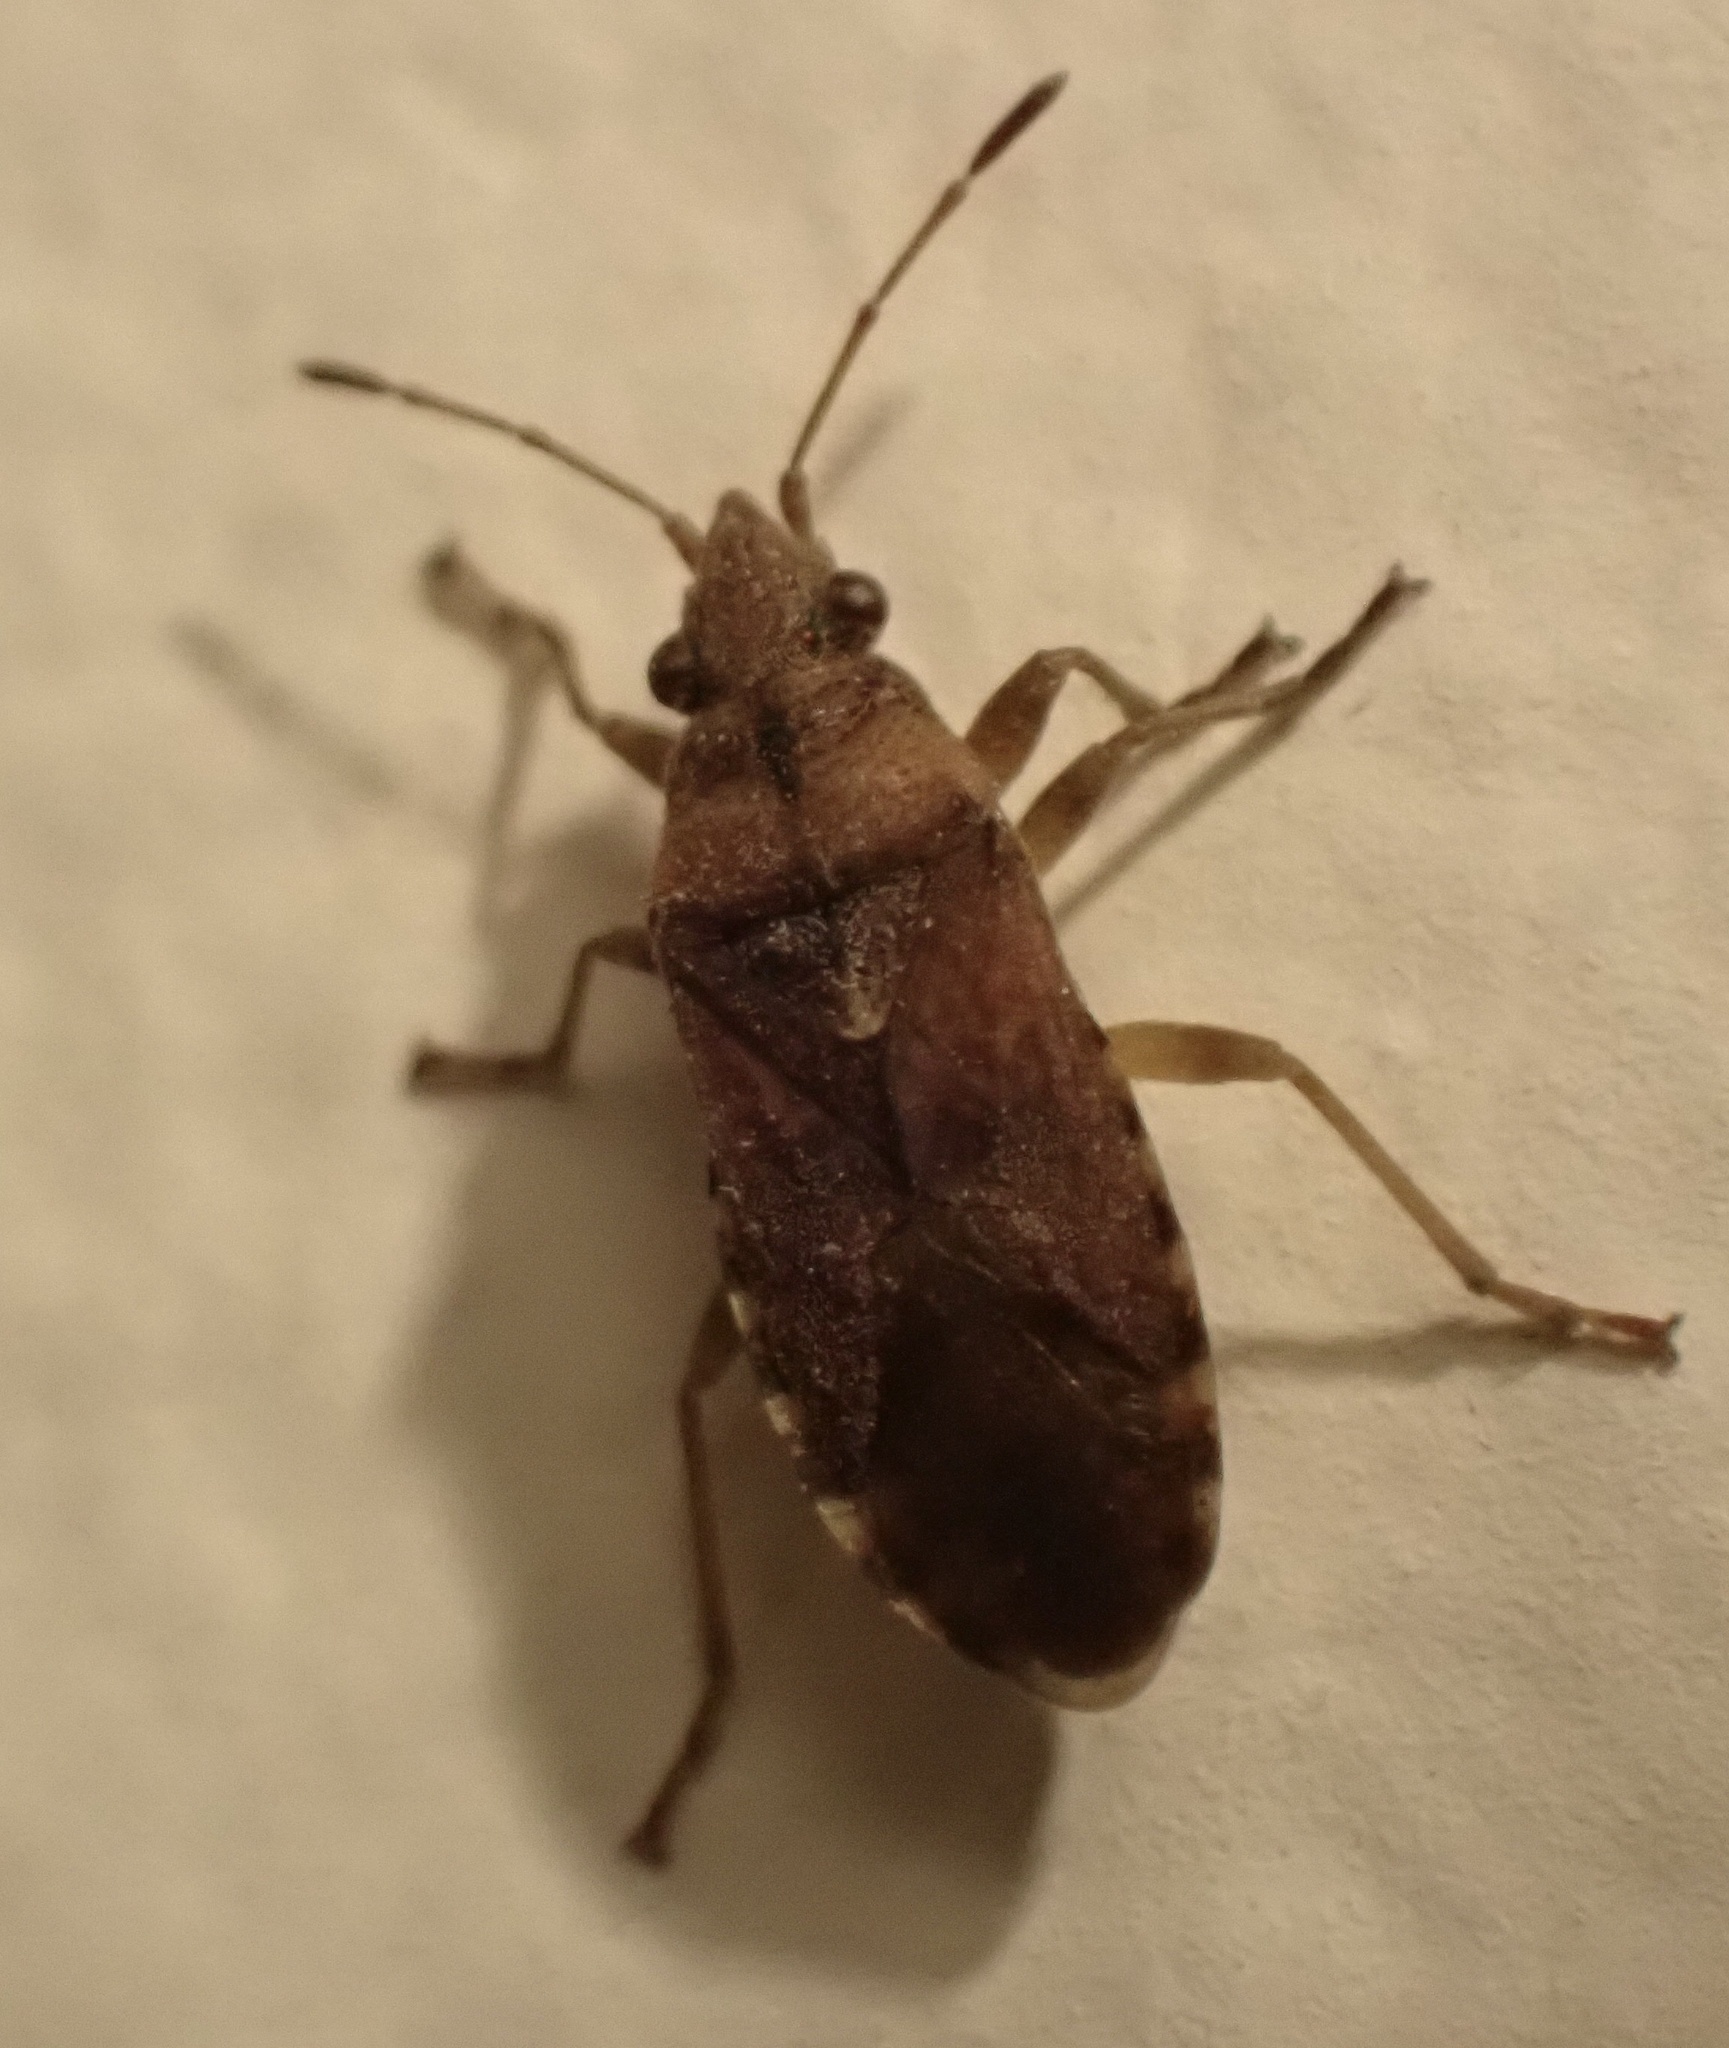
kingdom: Animalia
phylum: Arthropoda
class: Insecta
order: Hemiptera
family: Lygaeidae
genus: Orsillus
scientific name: Orsillus depressus
